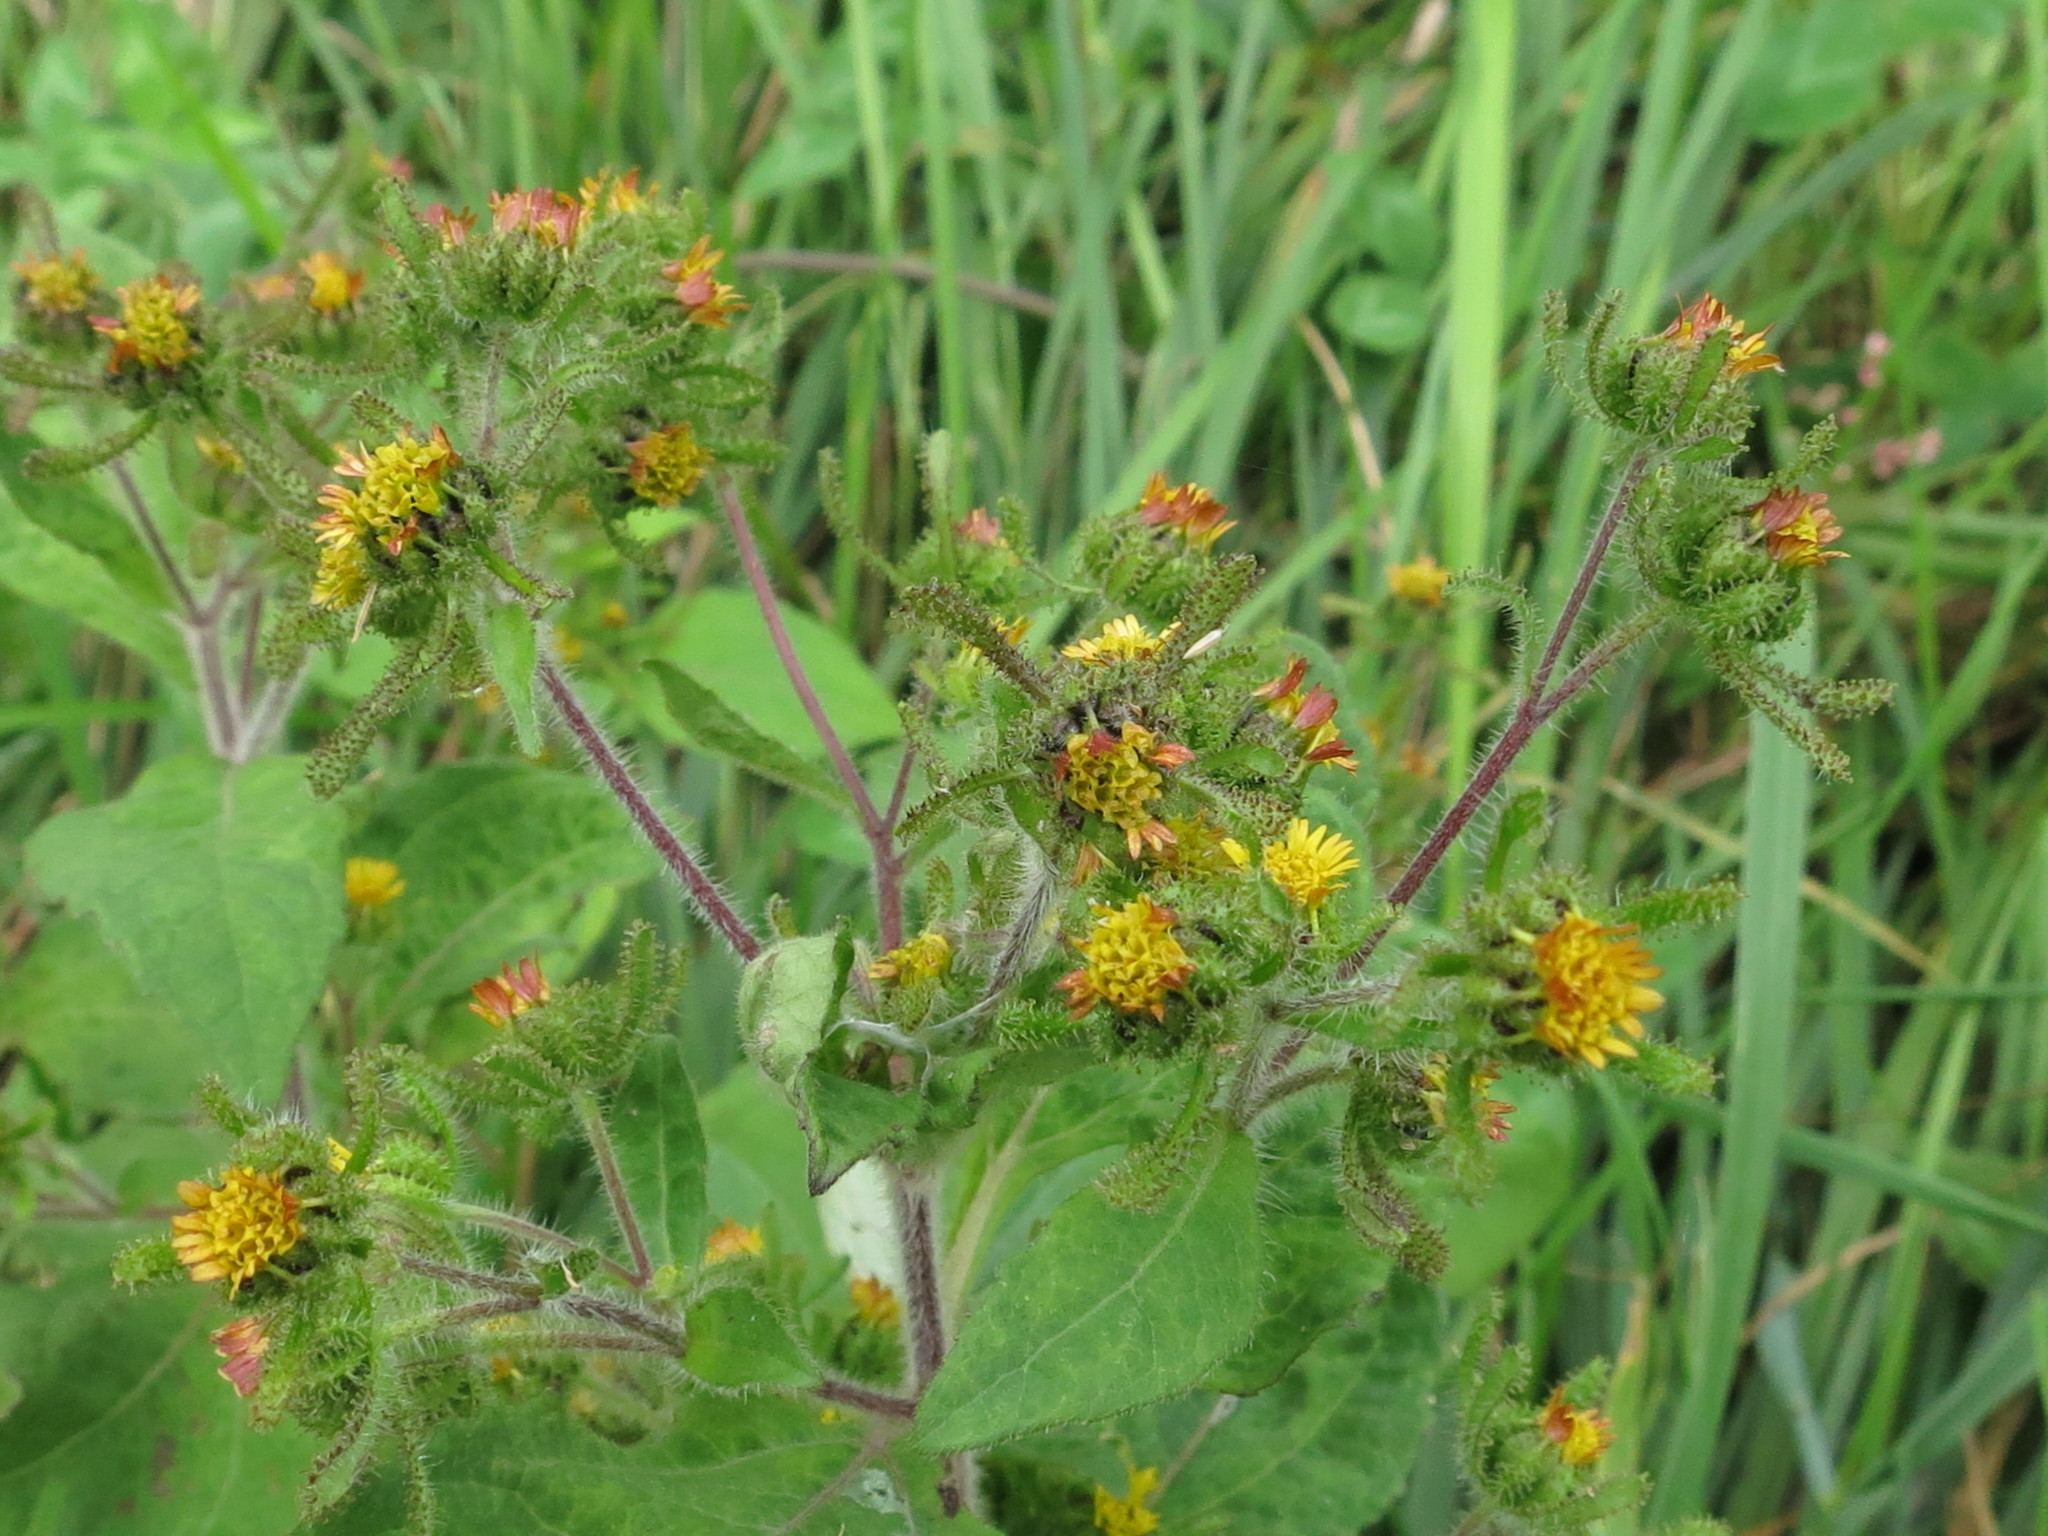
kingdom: Plantae
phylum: Tracheophyta
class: Magnoliopsida
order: Asterales
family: Asteraceae
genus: Sigesbeckia
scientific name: Sigesbeckia orientalis
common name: Eastern st paul's-wort
